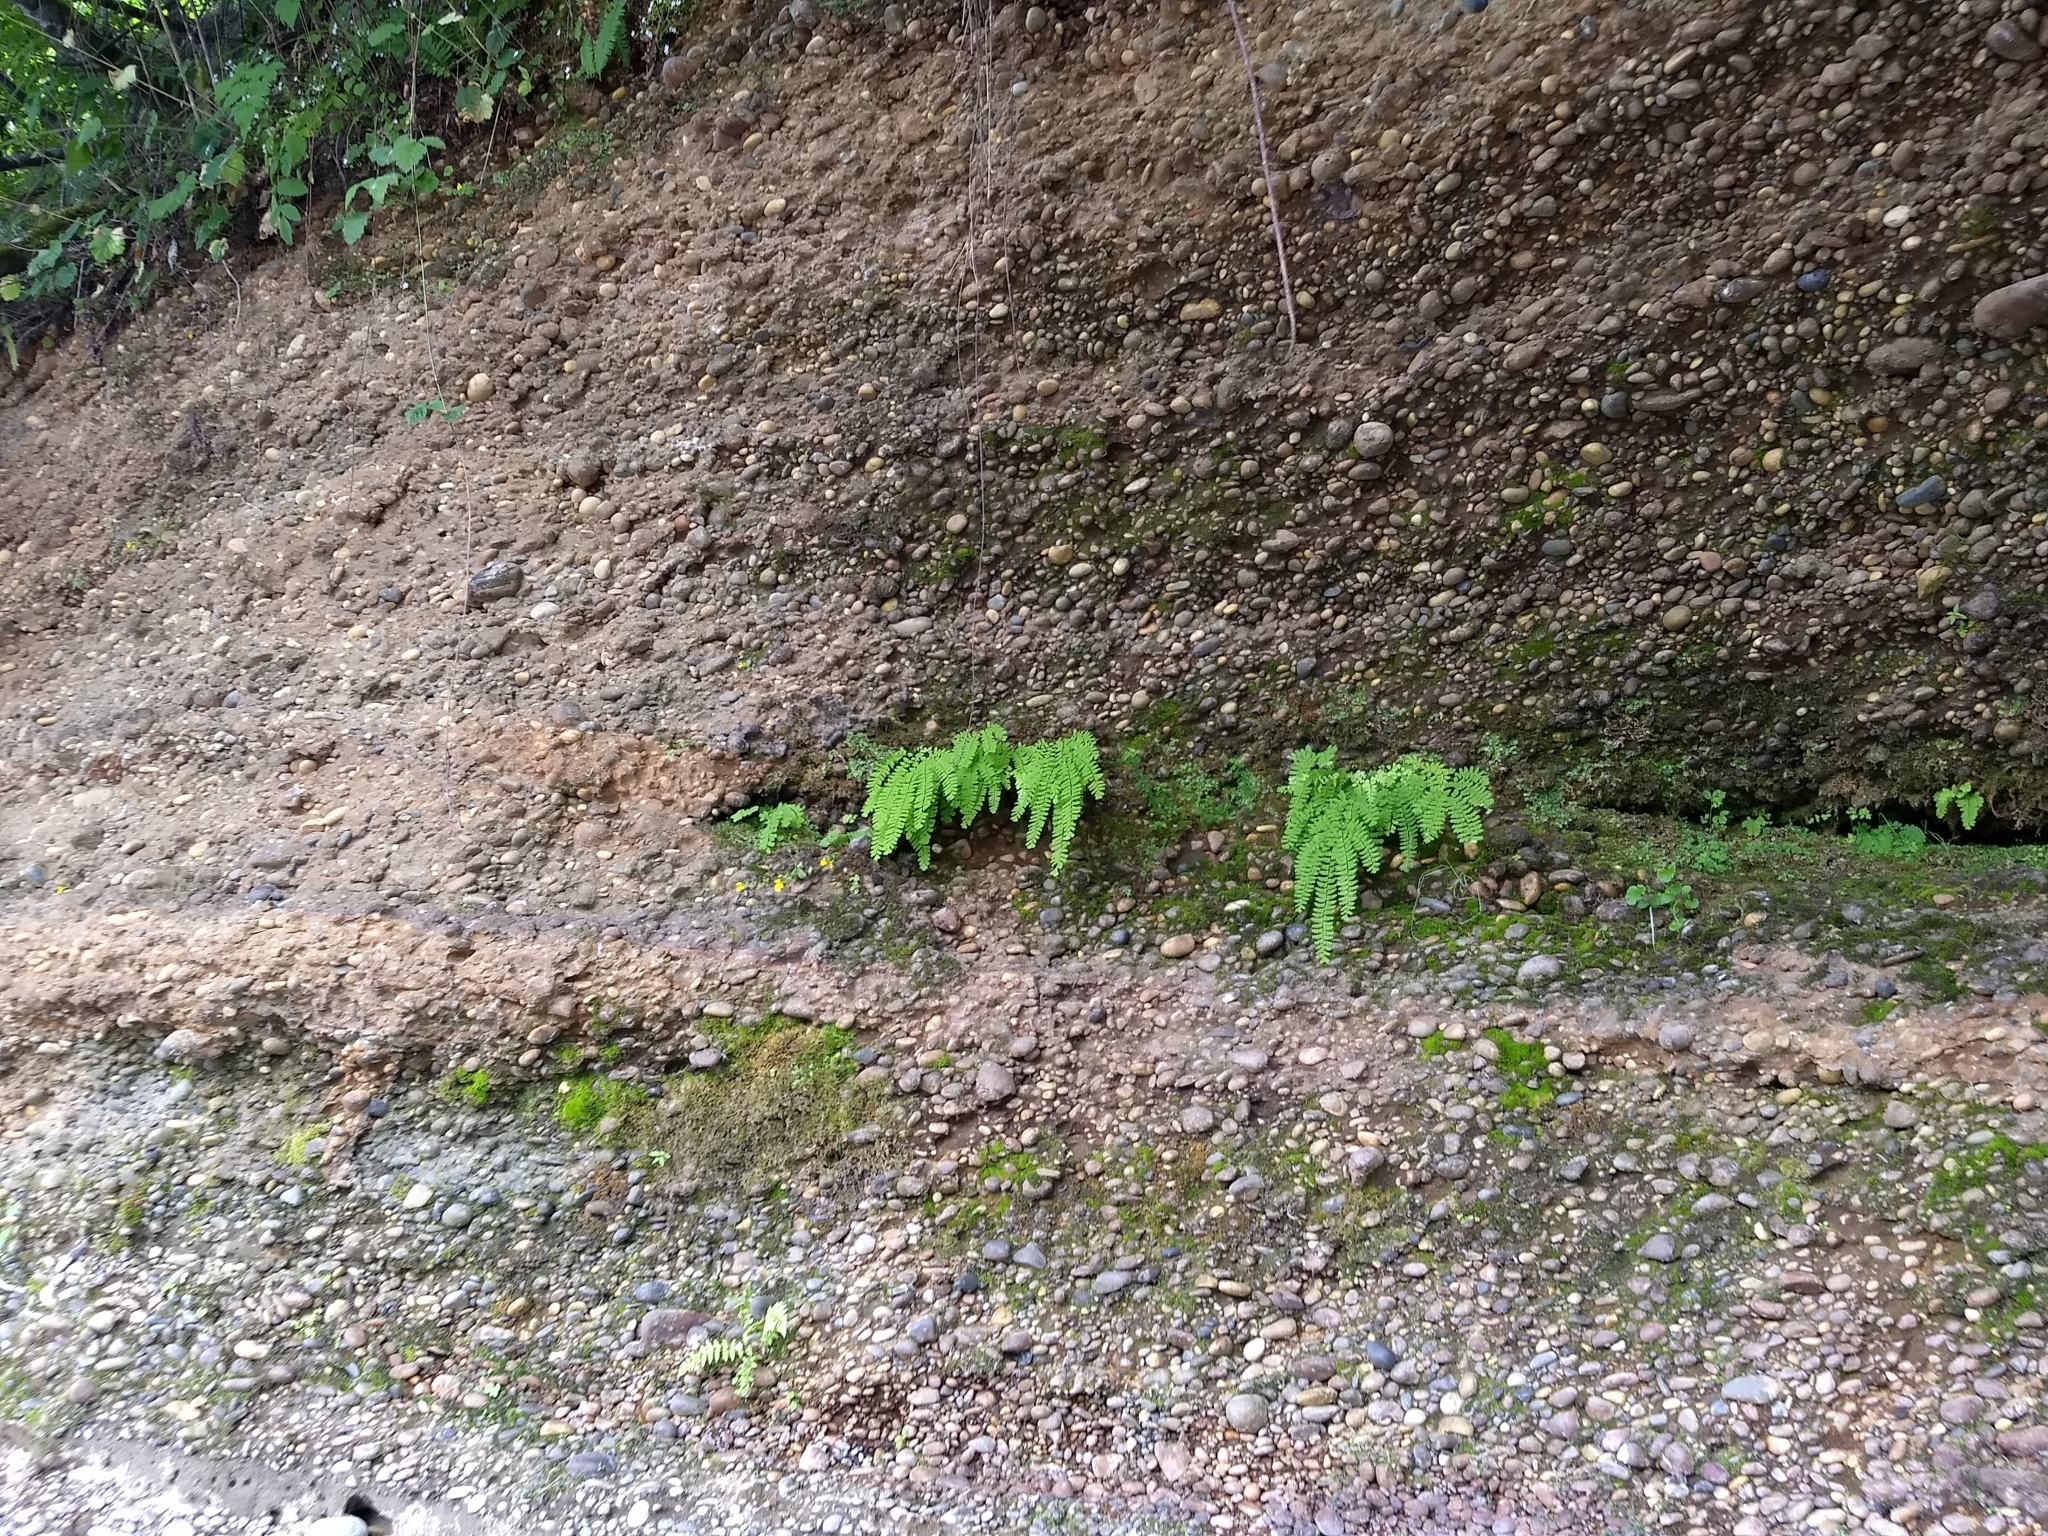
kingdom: Plantae
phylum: Tracheophyta
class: Polypodiopsida
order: Polypodiales
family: Pteridaceae
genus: Adiantum
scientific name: Adiantum aleuticum
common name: Aleutian maidenhair fern
